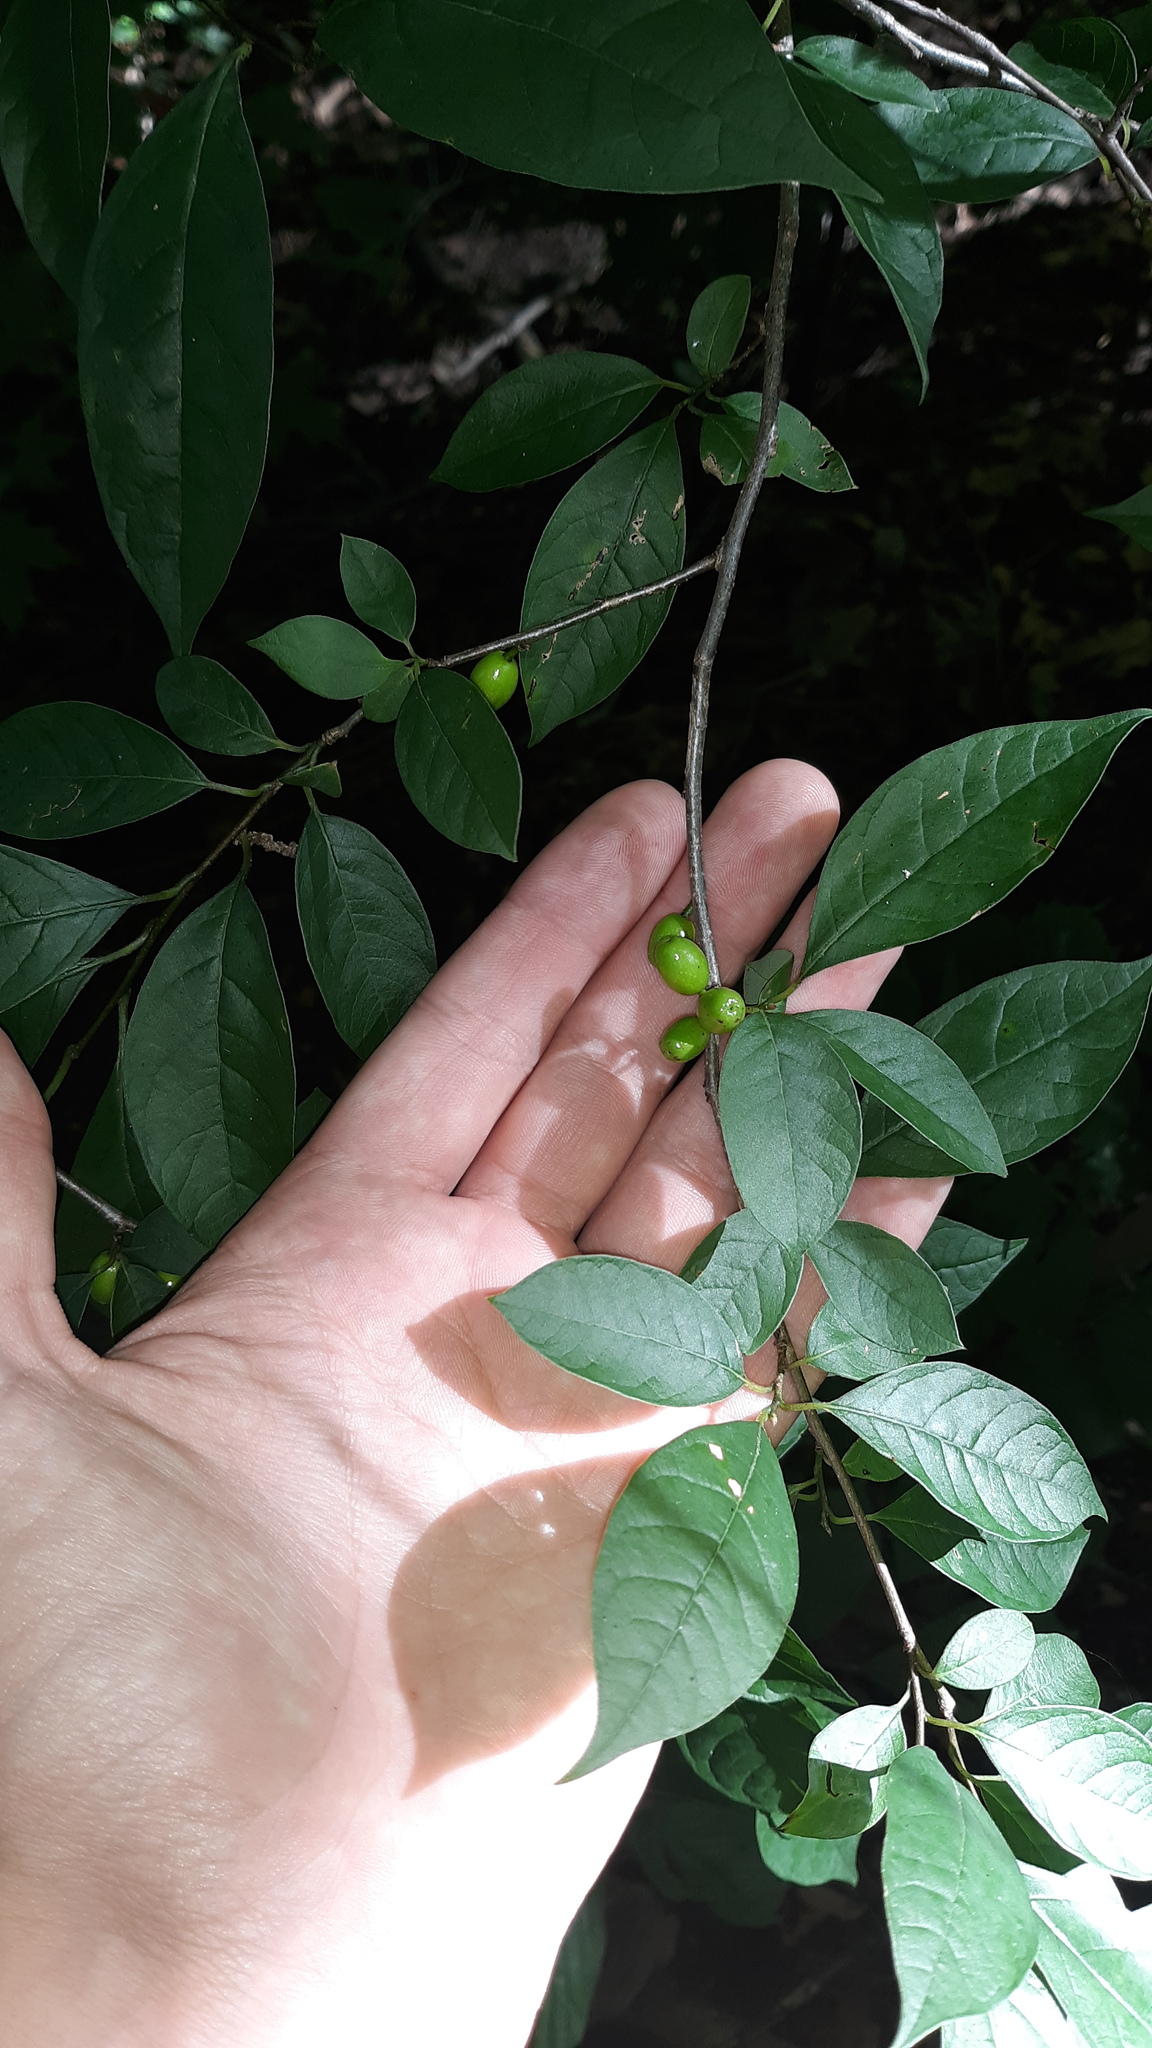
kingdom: Plantae
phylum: Tracheophyta
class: Magnoliopsida
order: Laurales
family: Lauraceae
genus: Lindera
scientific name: Lindera benzoin
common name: Spicebush
